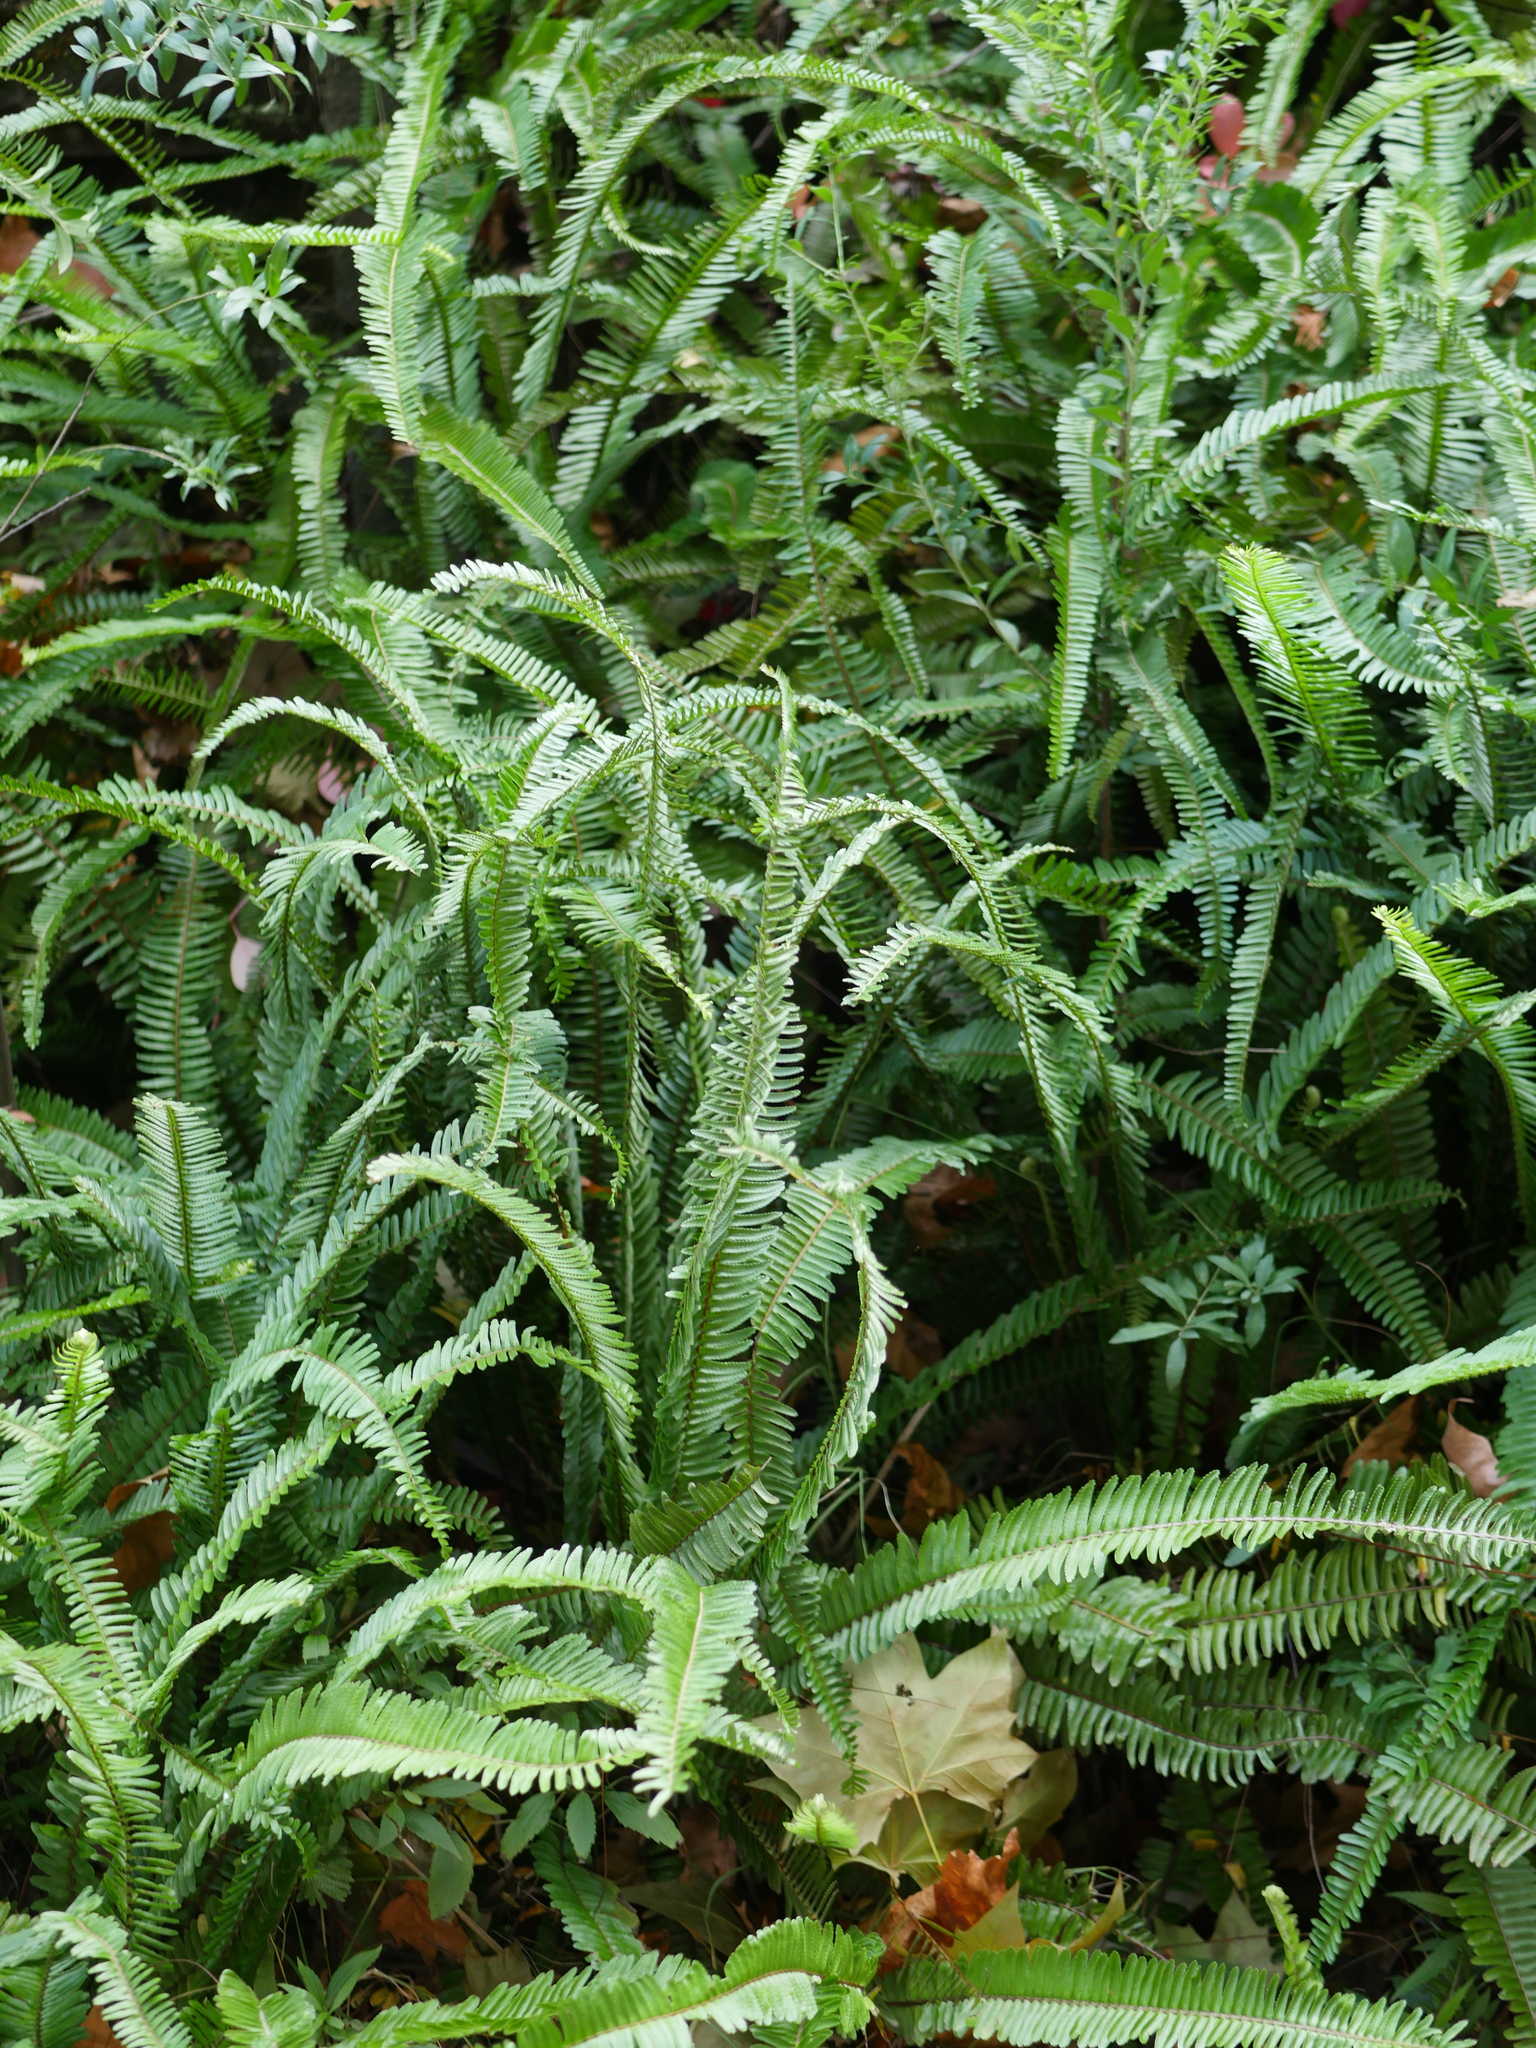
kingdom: Plantae
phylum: Tracheophyta
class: Polypodiopsida
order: Polypodiales
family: Nephrolepidaceae
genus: Nephrolepis
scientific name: Nephrolepis cordifolia
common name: Narrow swordfern
